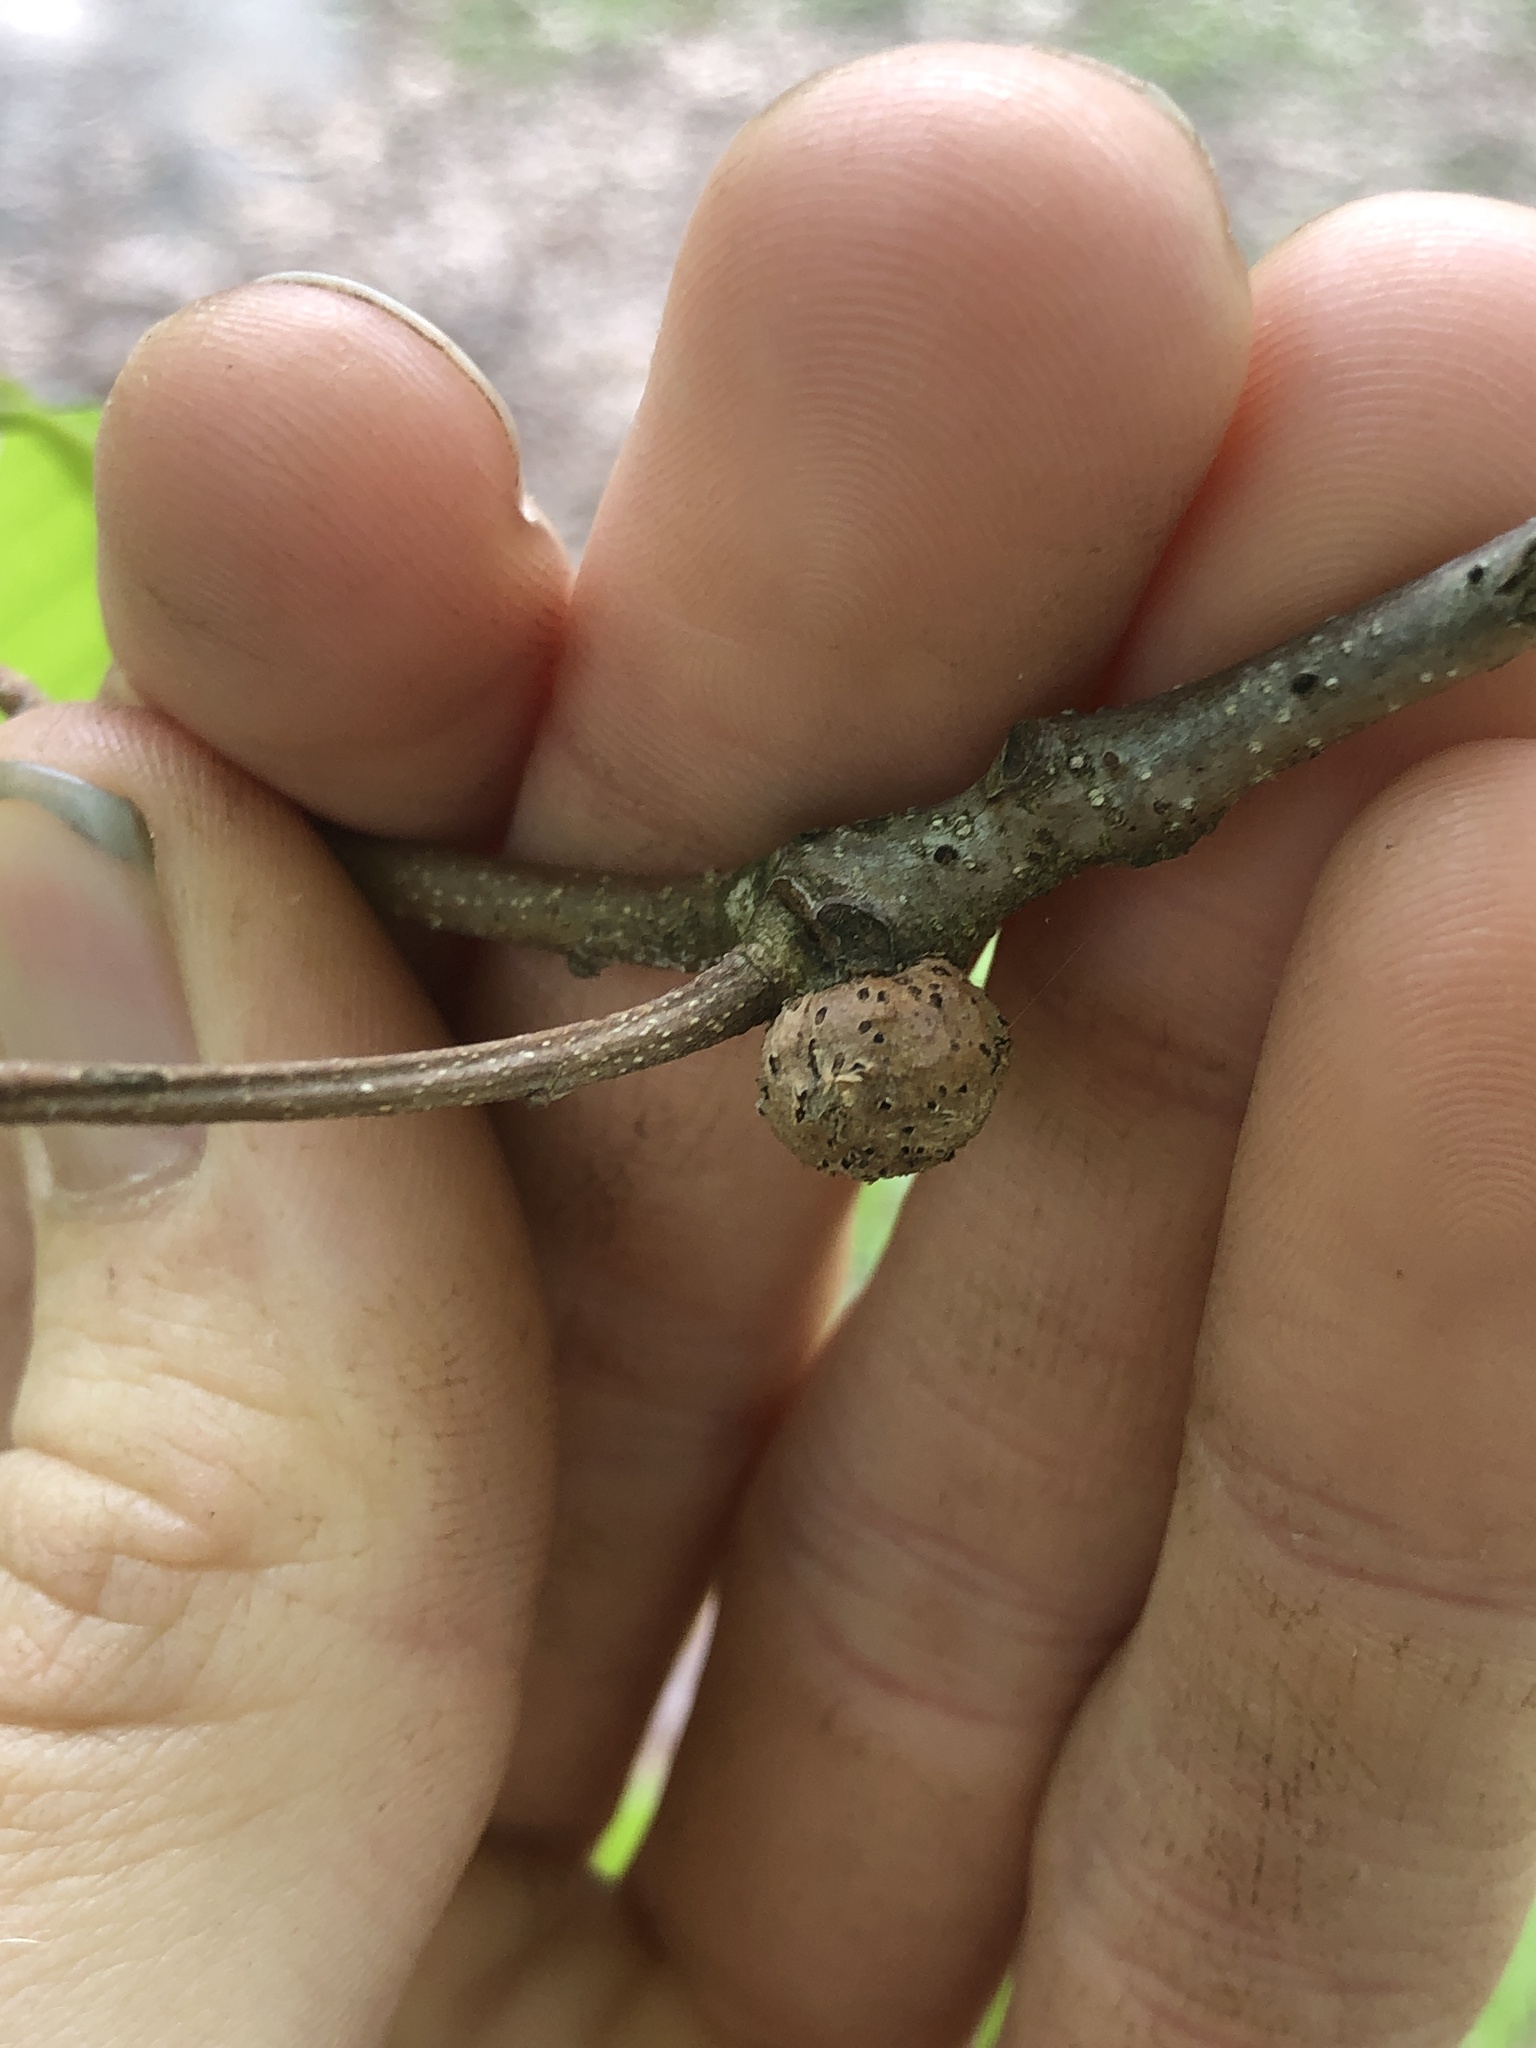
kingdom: Animalia
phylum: Arthropoda
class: Insecta
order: Hymenoptera
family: Cynipidae
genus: Disholcaspis
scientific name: Disholcaspis quercusglobulus
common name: Round bullet gall wasp
